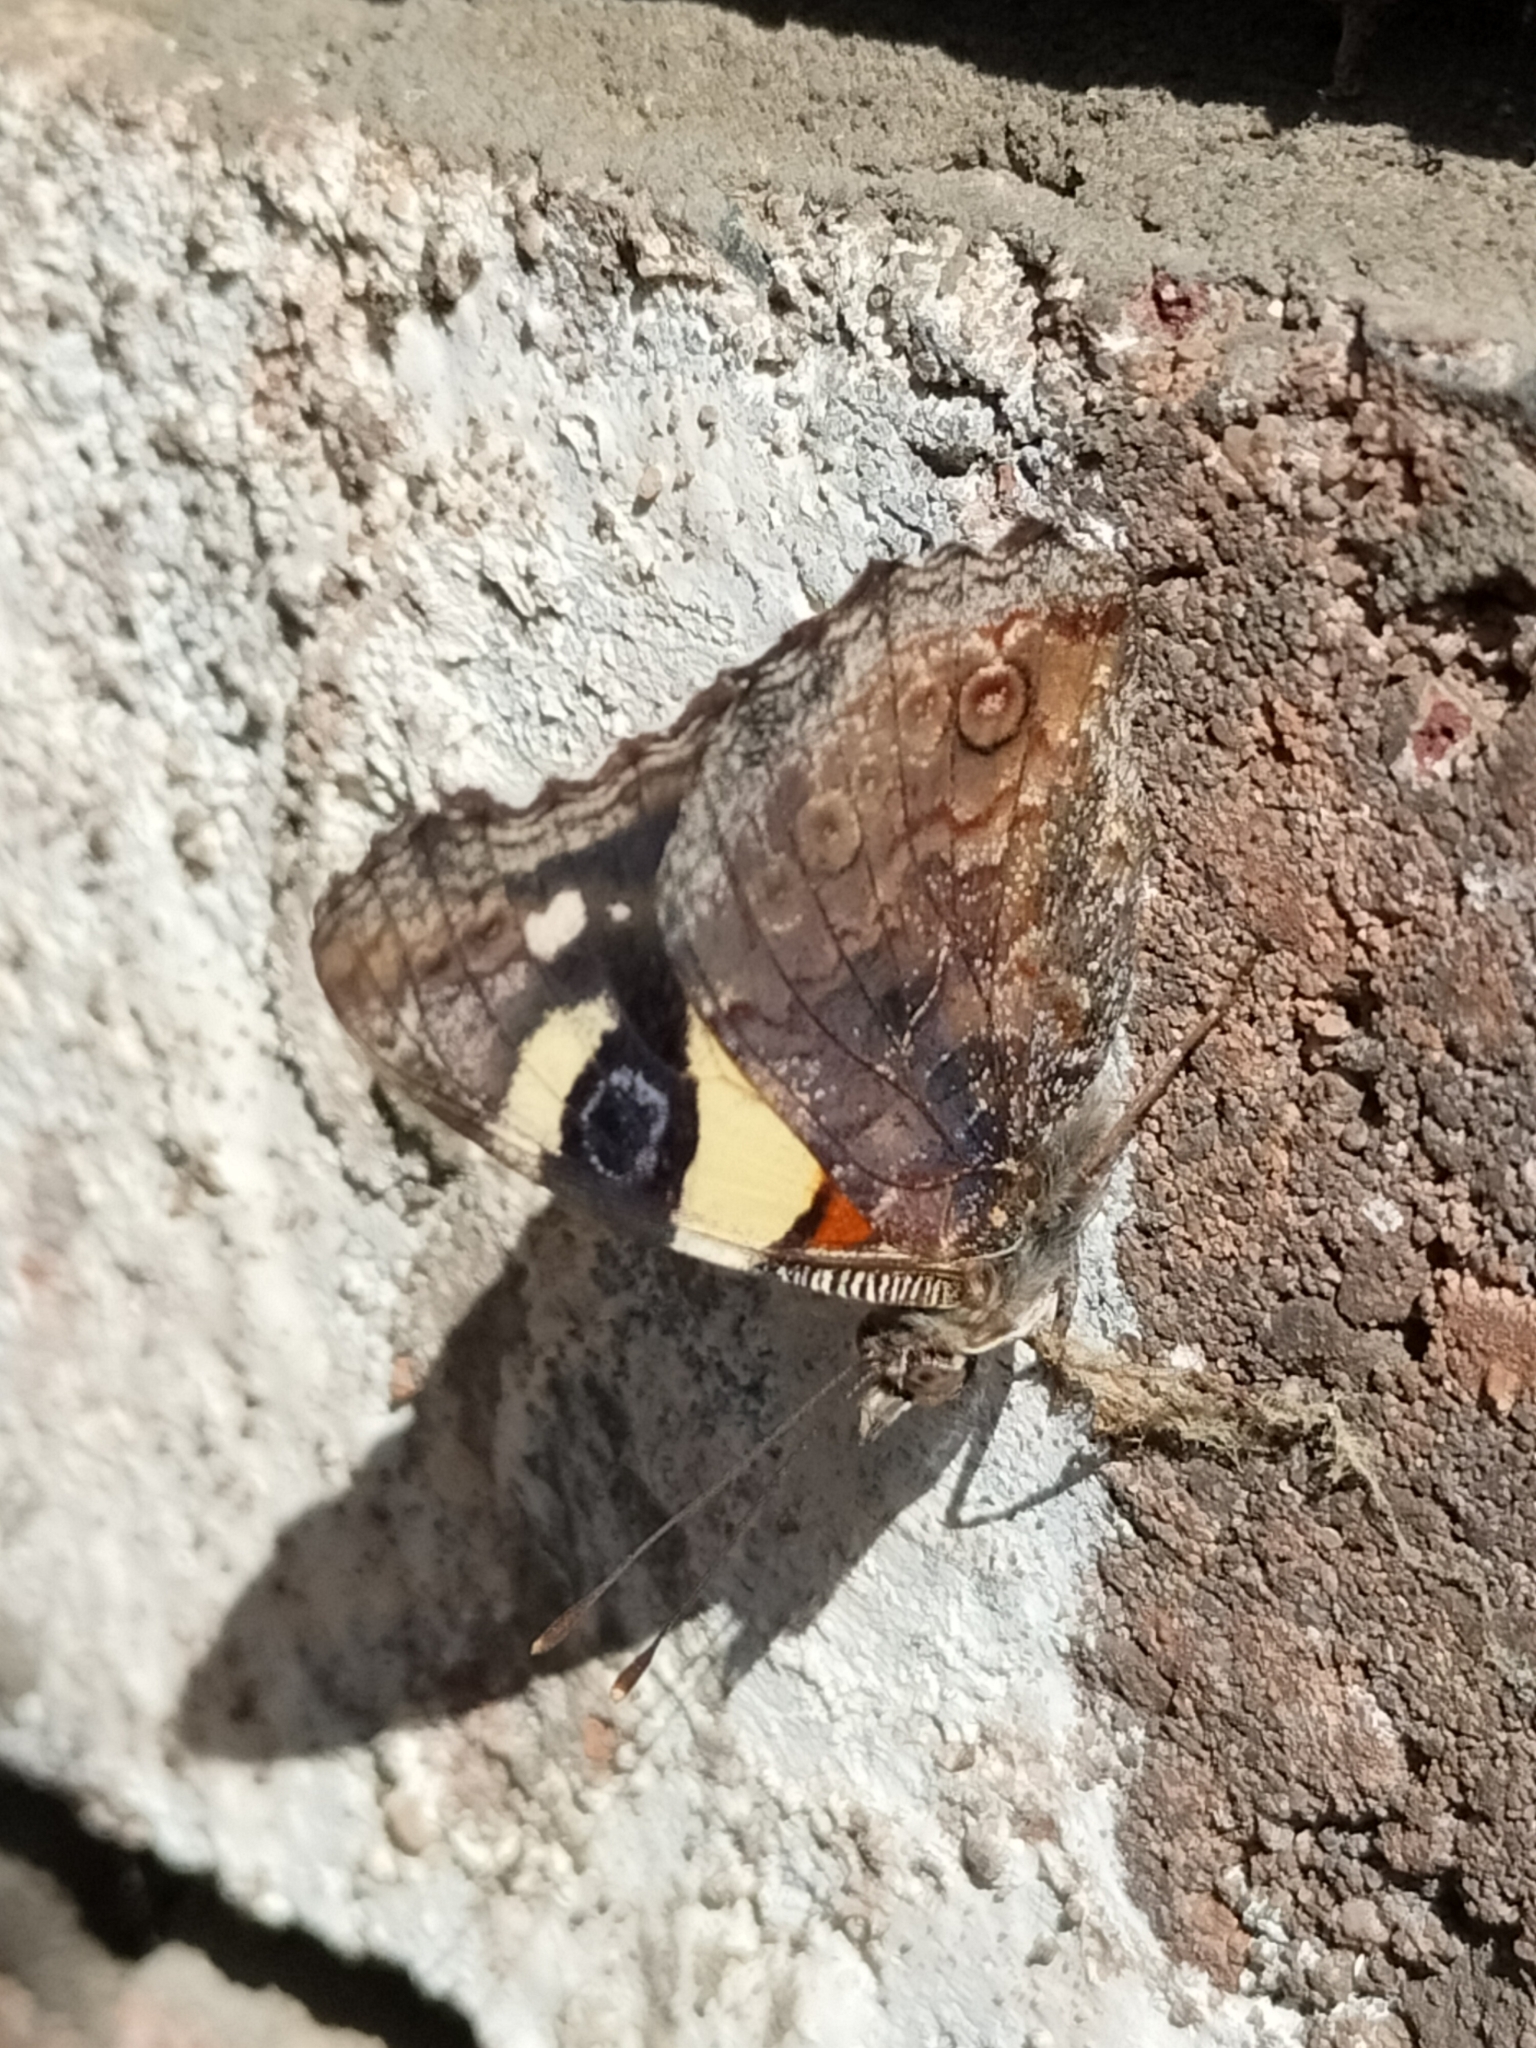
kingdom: Animalia
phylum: Arthropoda
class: Insecta
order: Lepidoptera
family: Nymphalidae
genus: Vanessa
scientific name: Vanessa itea
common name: Yellow admiral
